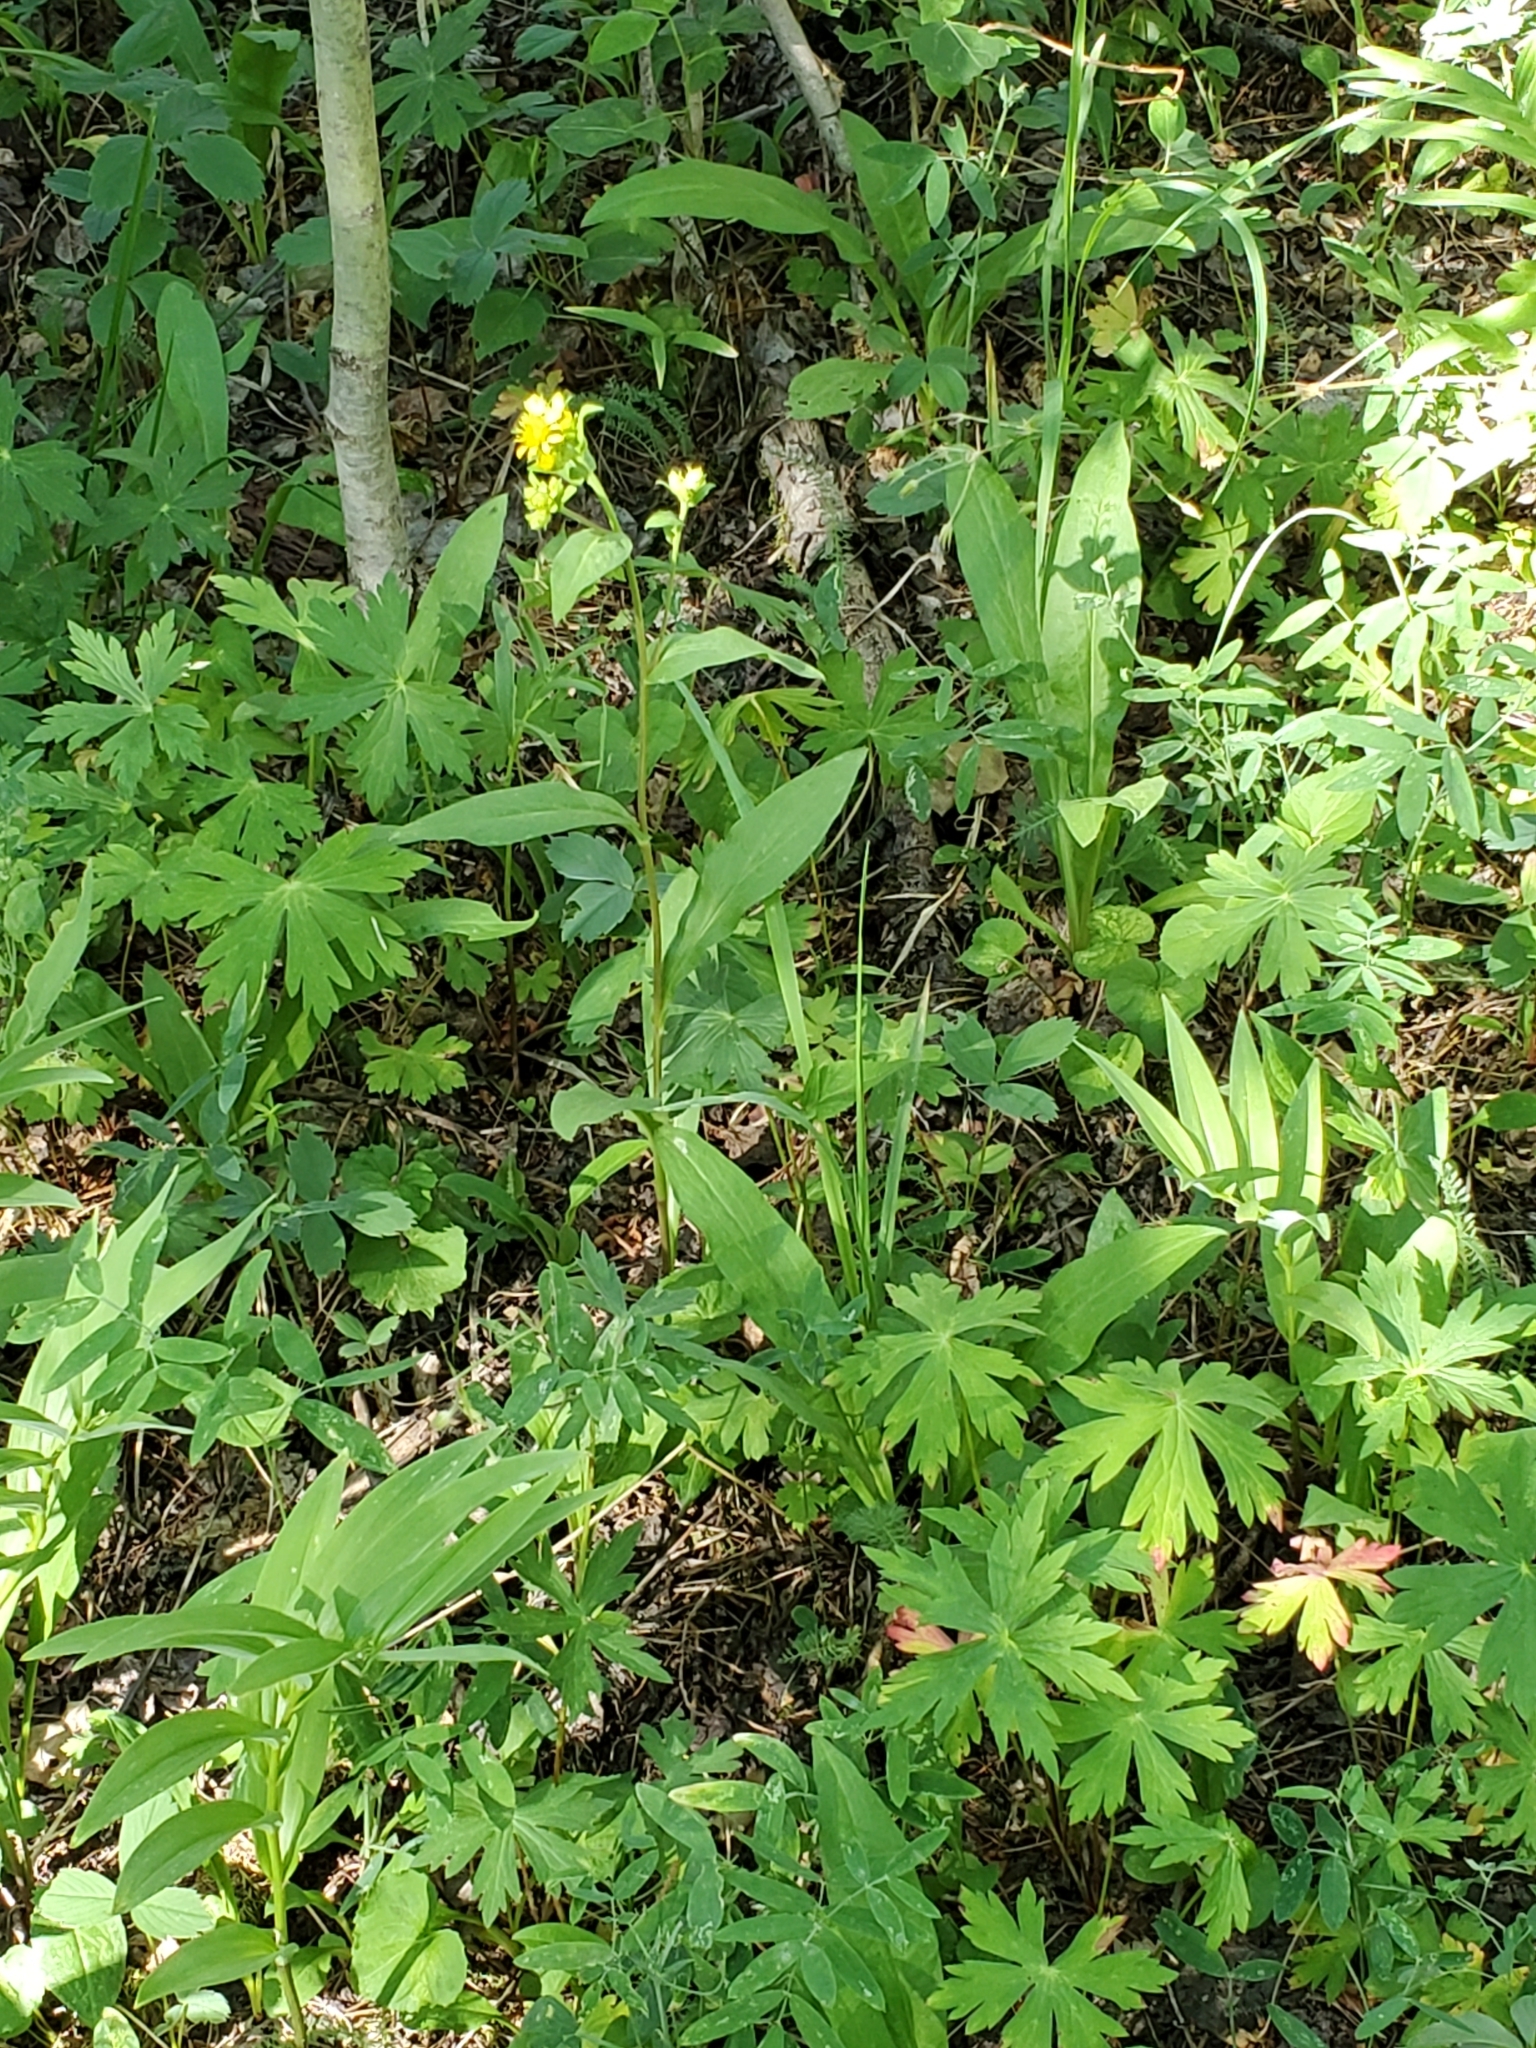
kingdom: Plantae
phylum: Tracheophyta
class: Magnoliopsida
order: Asterales
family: Asteraceae
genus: Oreochrysum
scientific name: Oreochrysum parryi
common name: Parry's goldenweed
